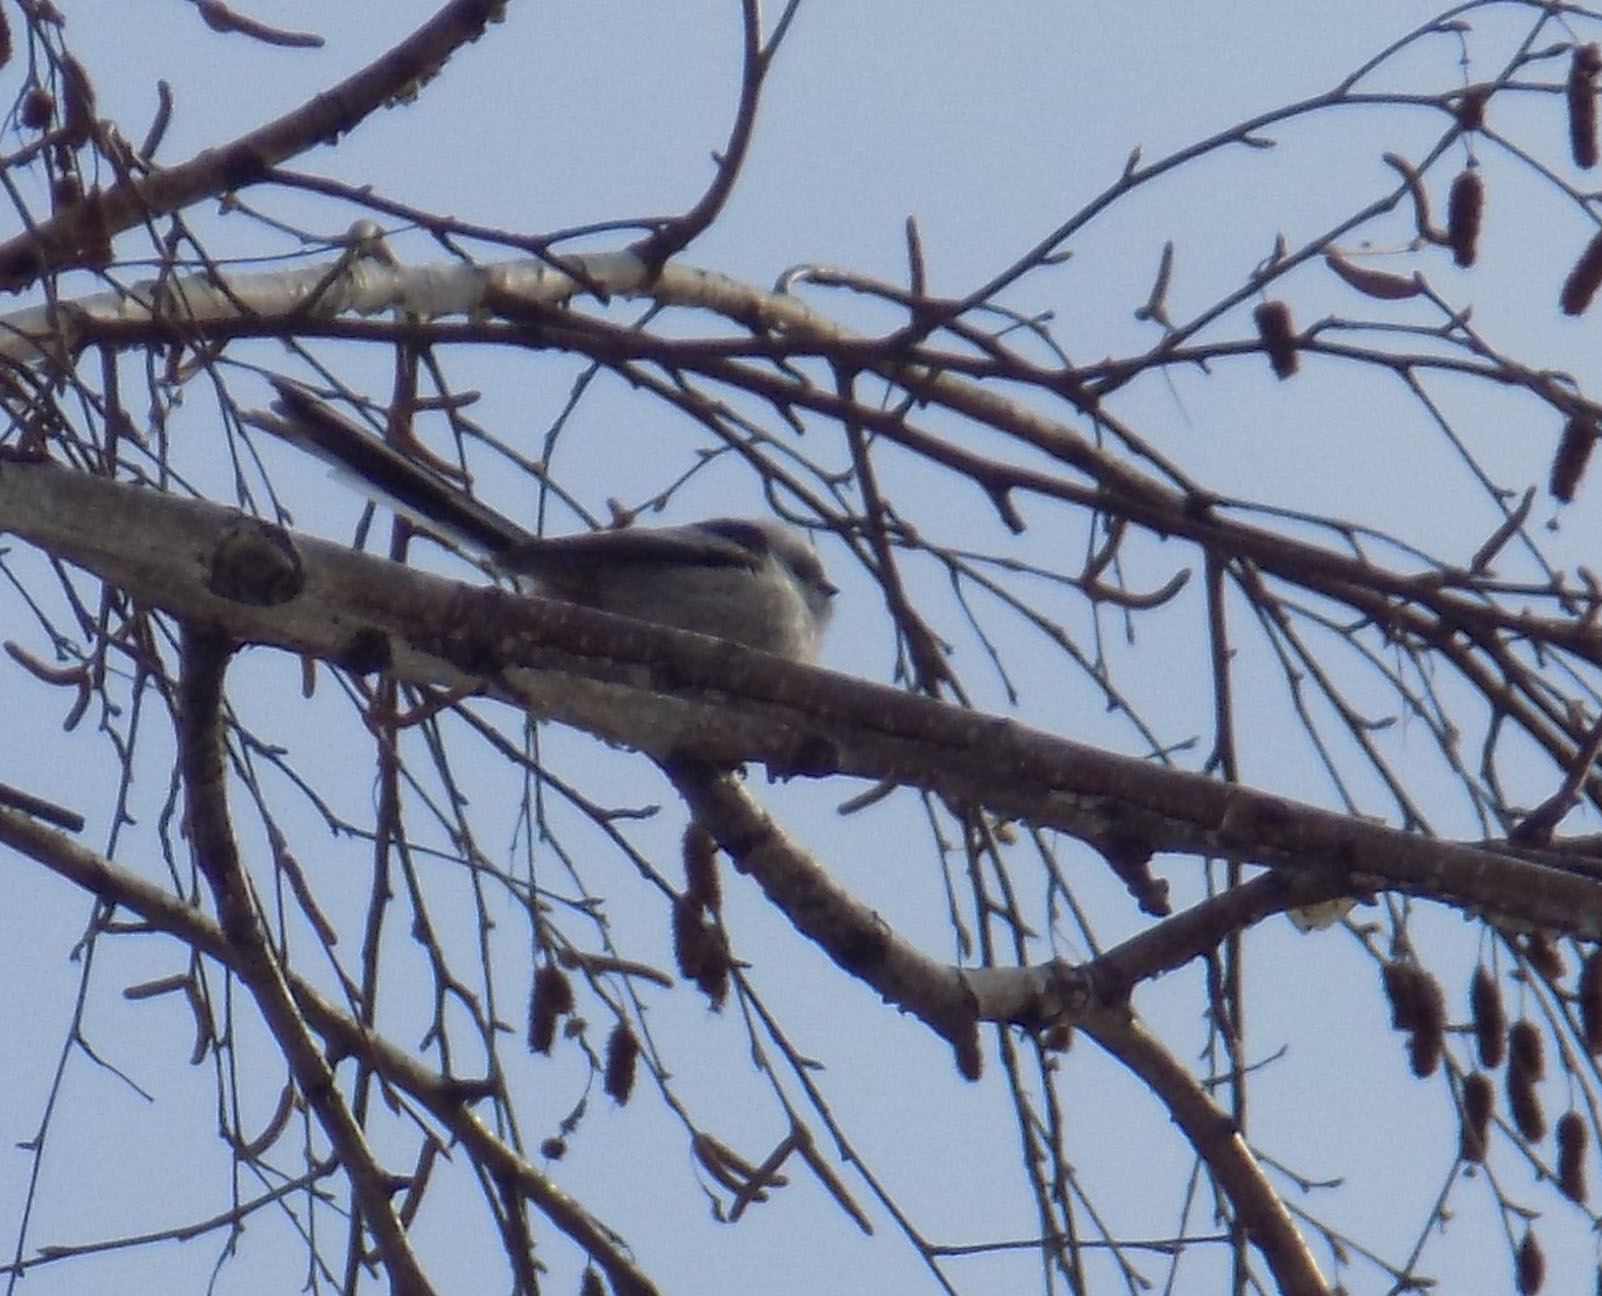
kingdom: Animalia
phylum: Chordata
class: Aves
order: Passeriformes
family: Aegithalidae
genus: Aegithalos
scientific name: Aegithalos caudatus
